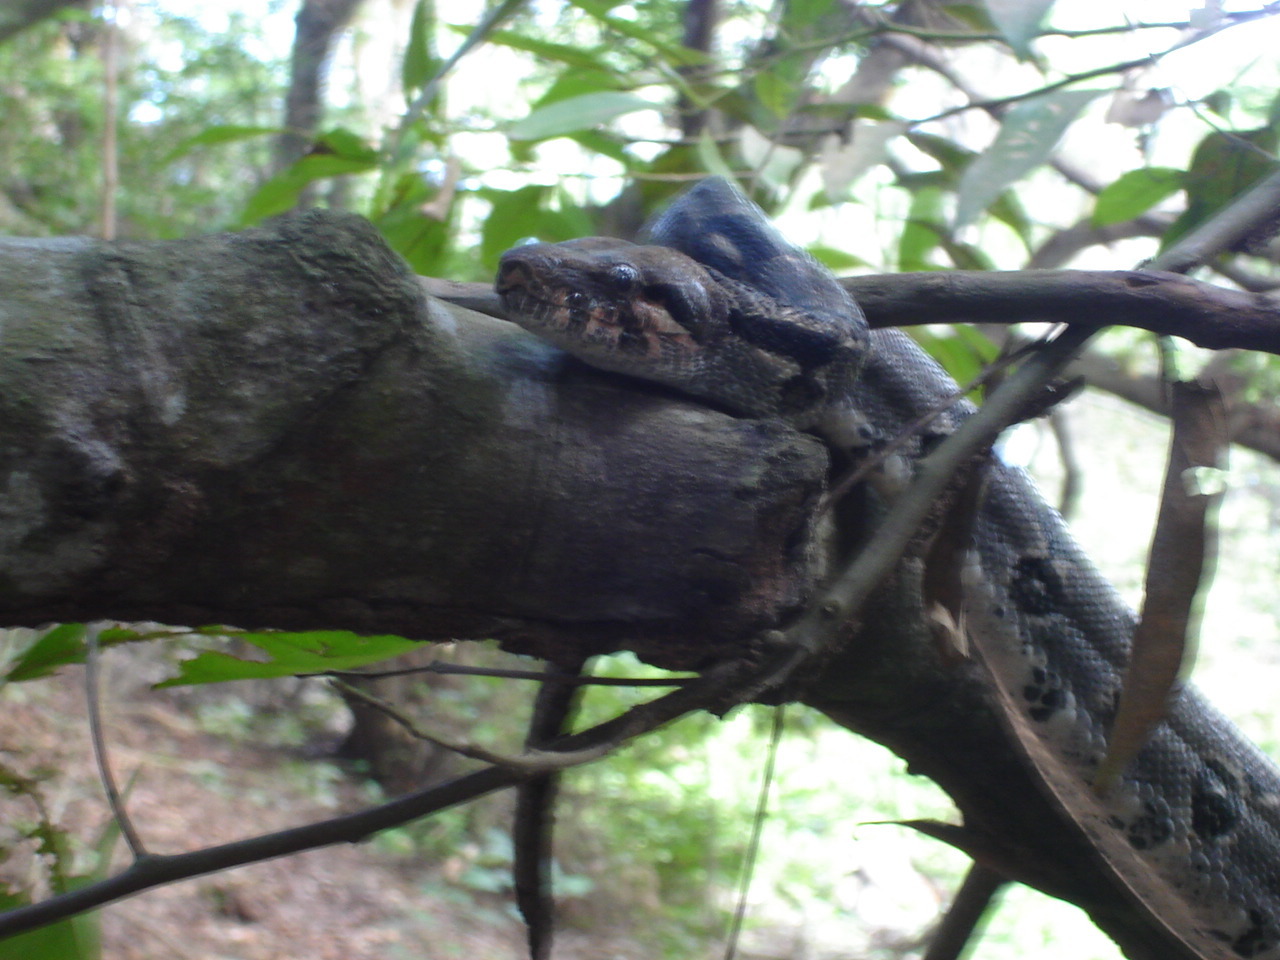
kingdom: Animalia
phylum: Chordata
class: Squamata
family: Boidae
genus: Boa
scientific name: Boa imperator
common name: Central american boa
